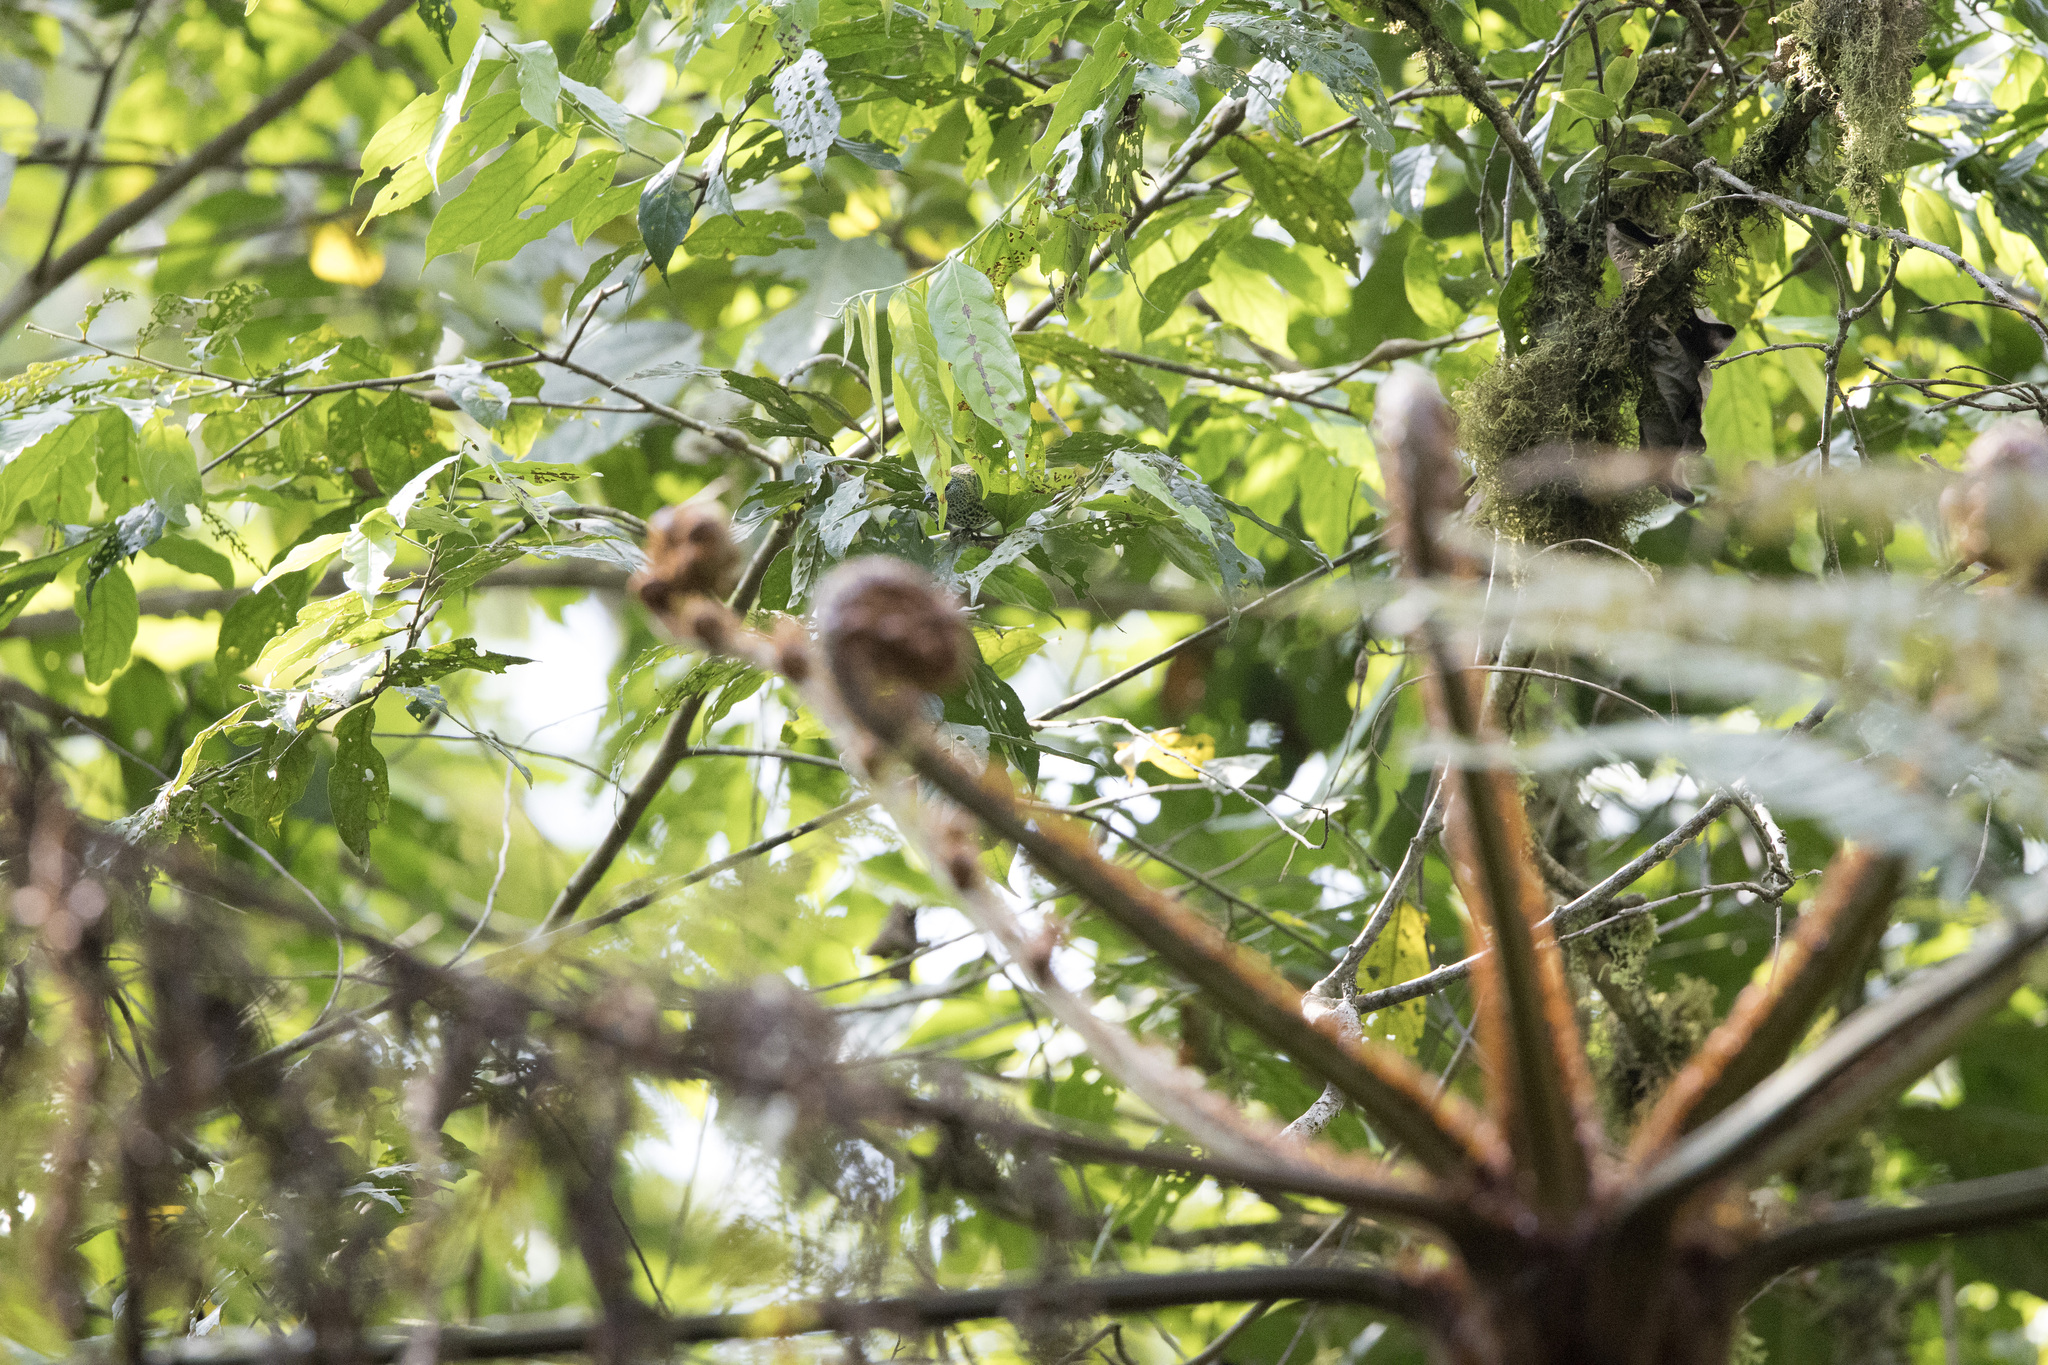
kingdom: Animalia
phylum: Chordata
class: Aves
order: Passeriformes
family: Thraupidae
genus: Ixothraupis
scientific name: Ixothraupis punctata
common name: Spotted tanager
